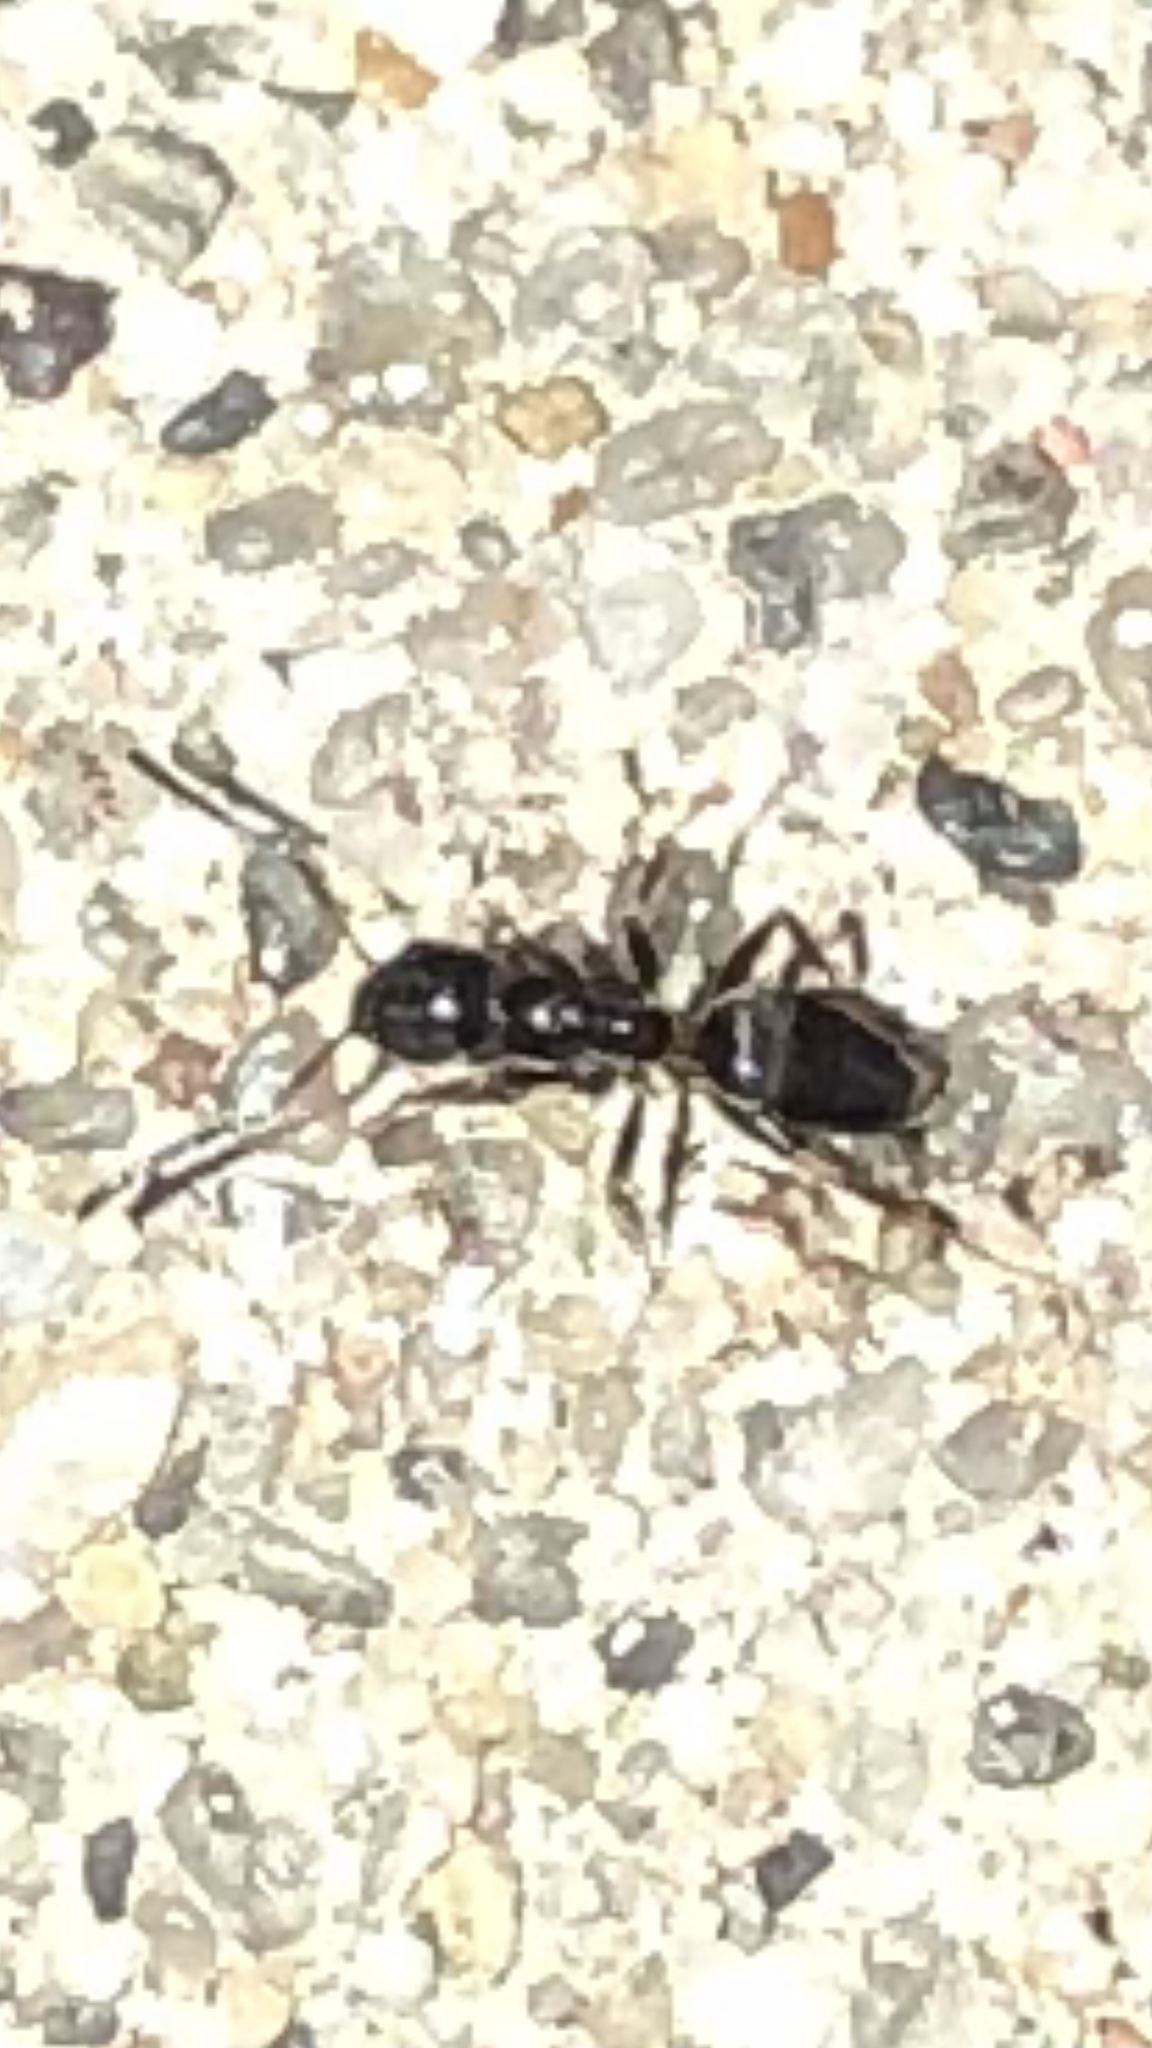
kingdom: Animalia
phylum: Arthropoda
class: Insecta
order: Hymenoptera
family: Formicidae
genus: Tapinoma
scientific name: Tapinoma sessile
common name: Odorous house ant
